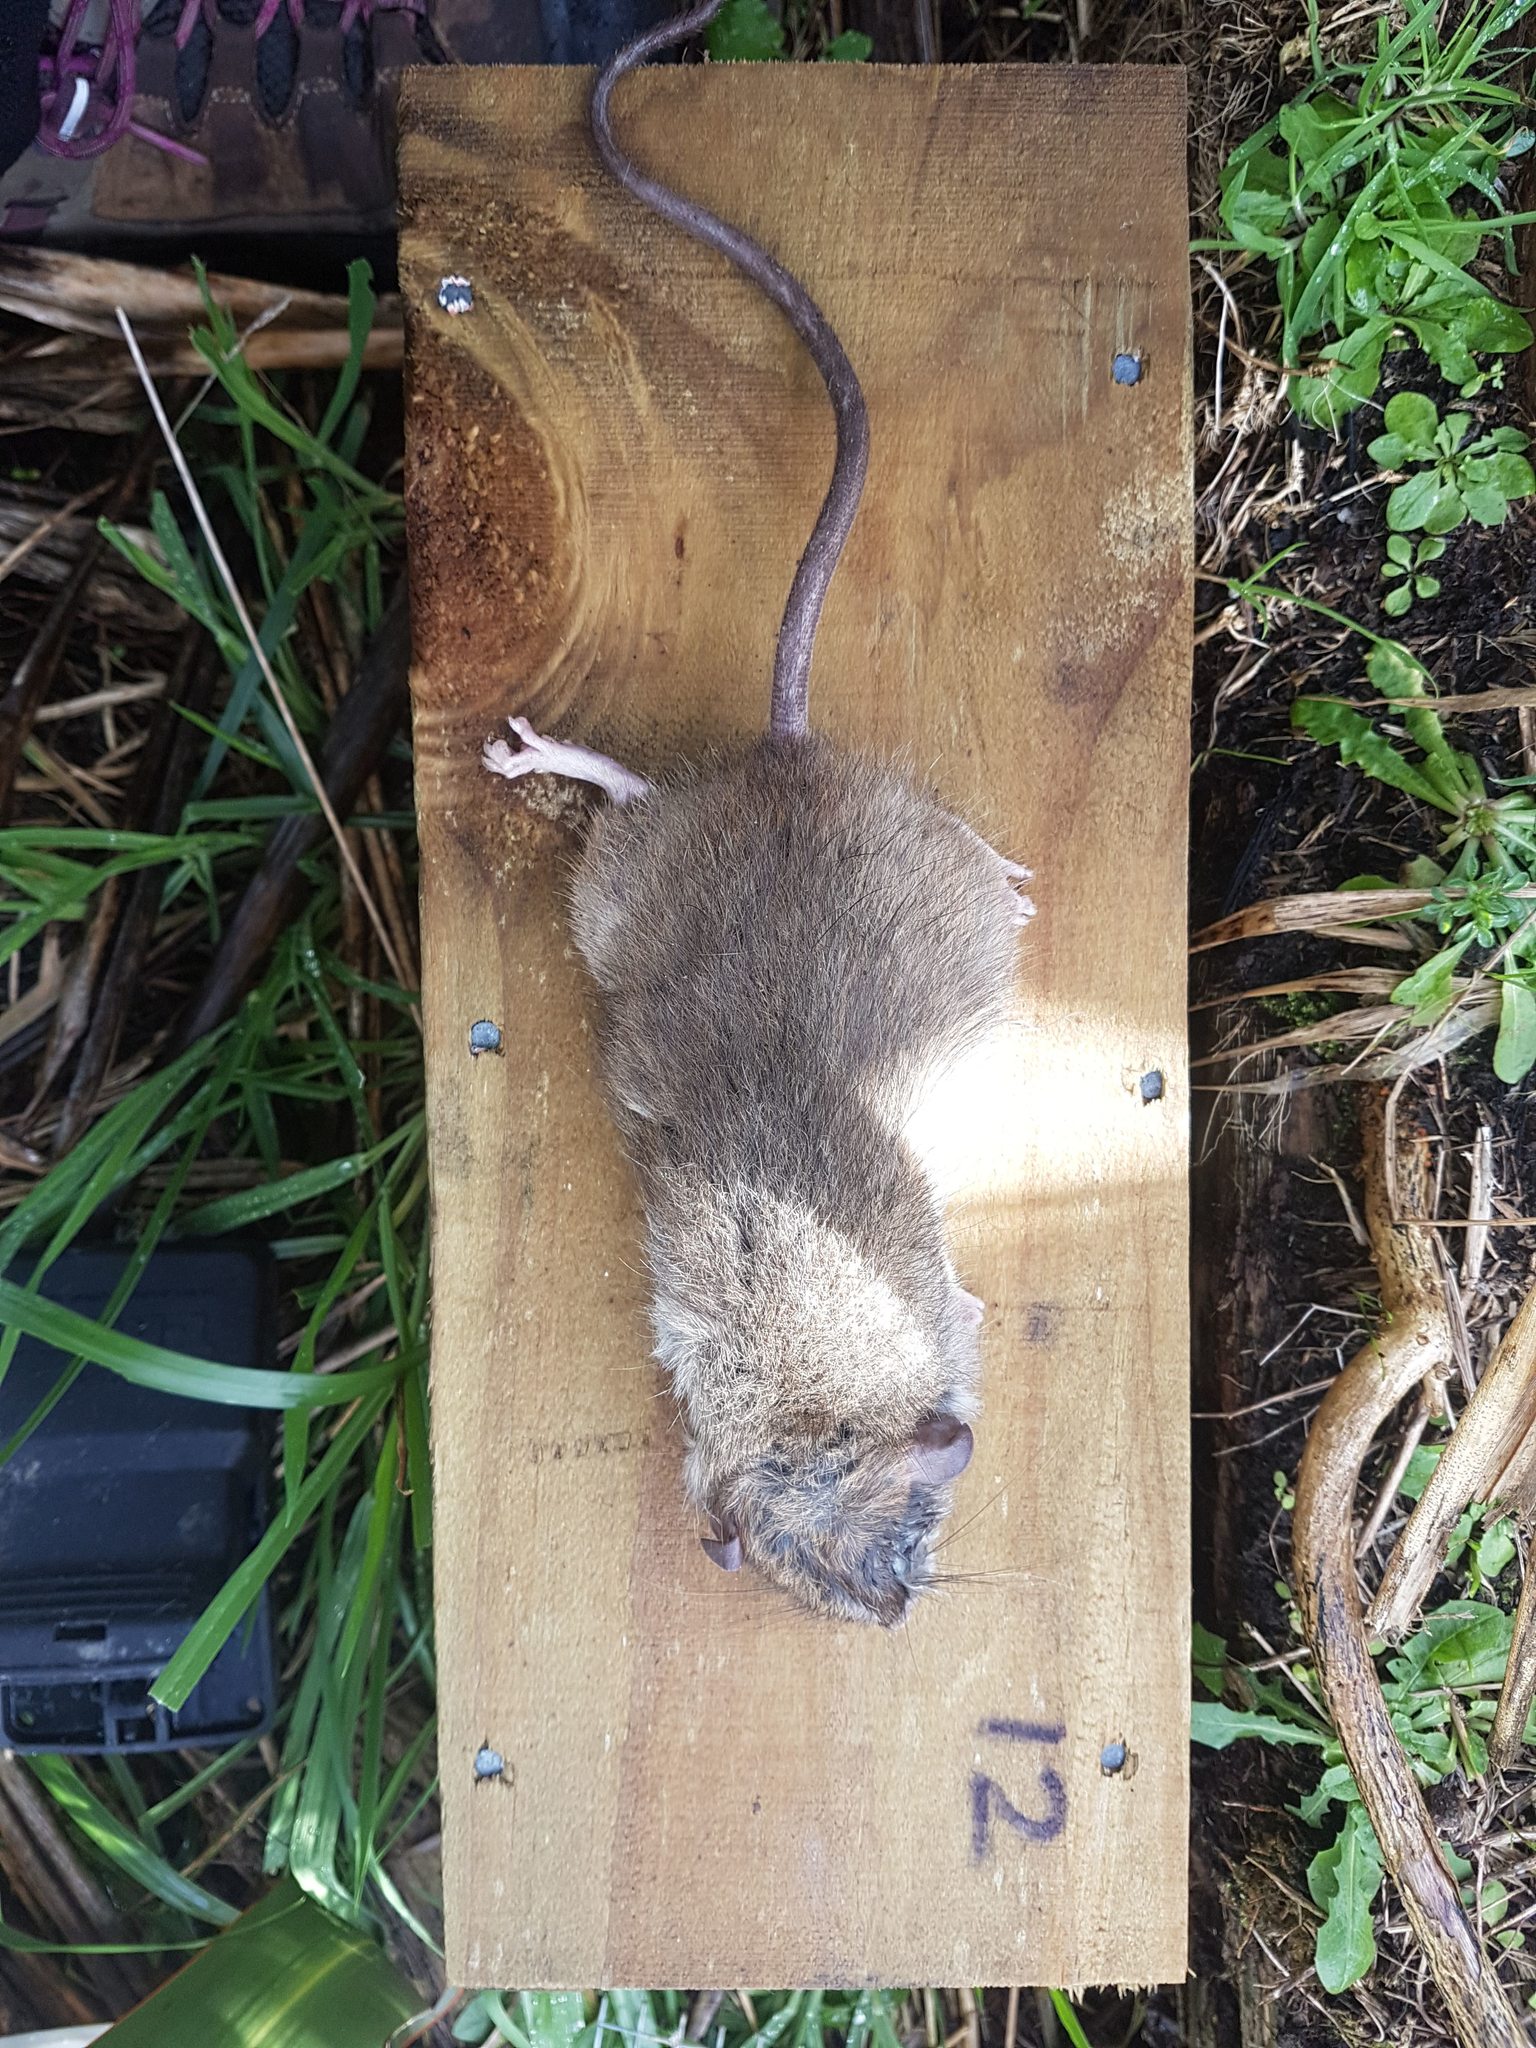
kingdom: Animalia
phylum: Chordata
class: Mammalia
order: Rodentia
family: Muridae
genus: Rattus
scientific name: Rattus rattus
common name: Black rat
